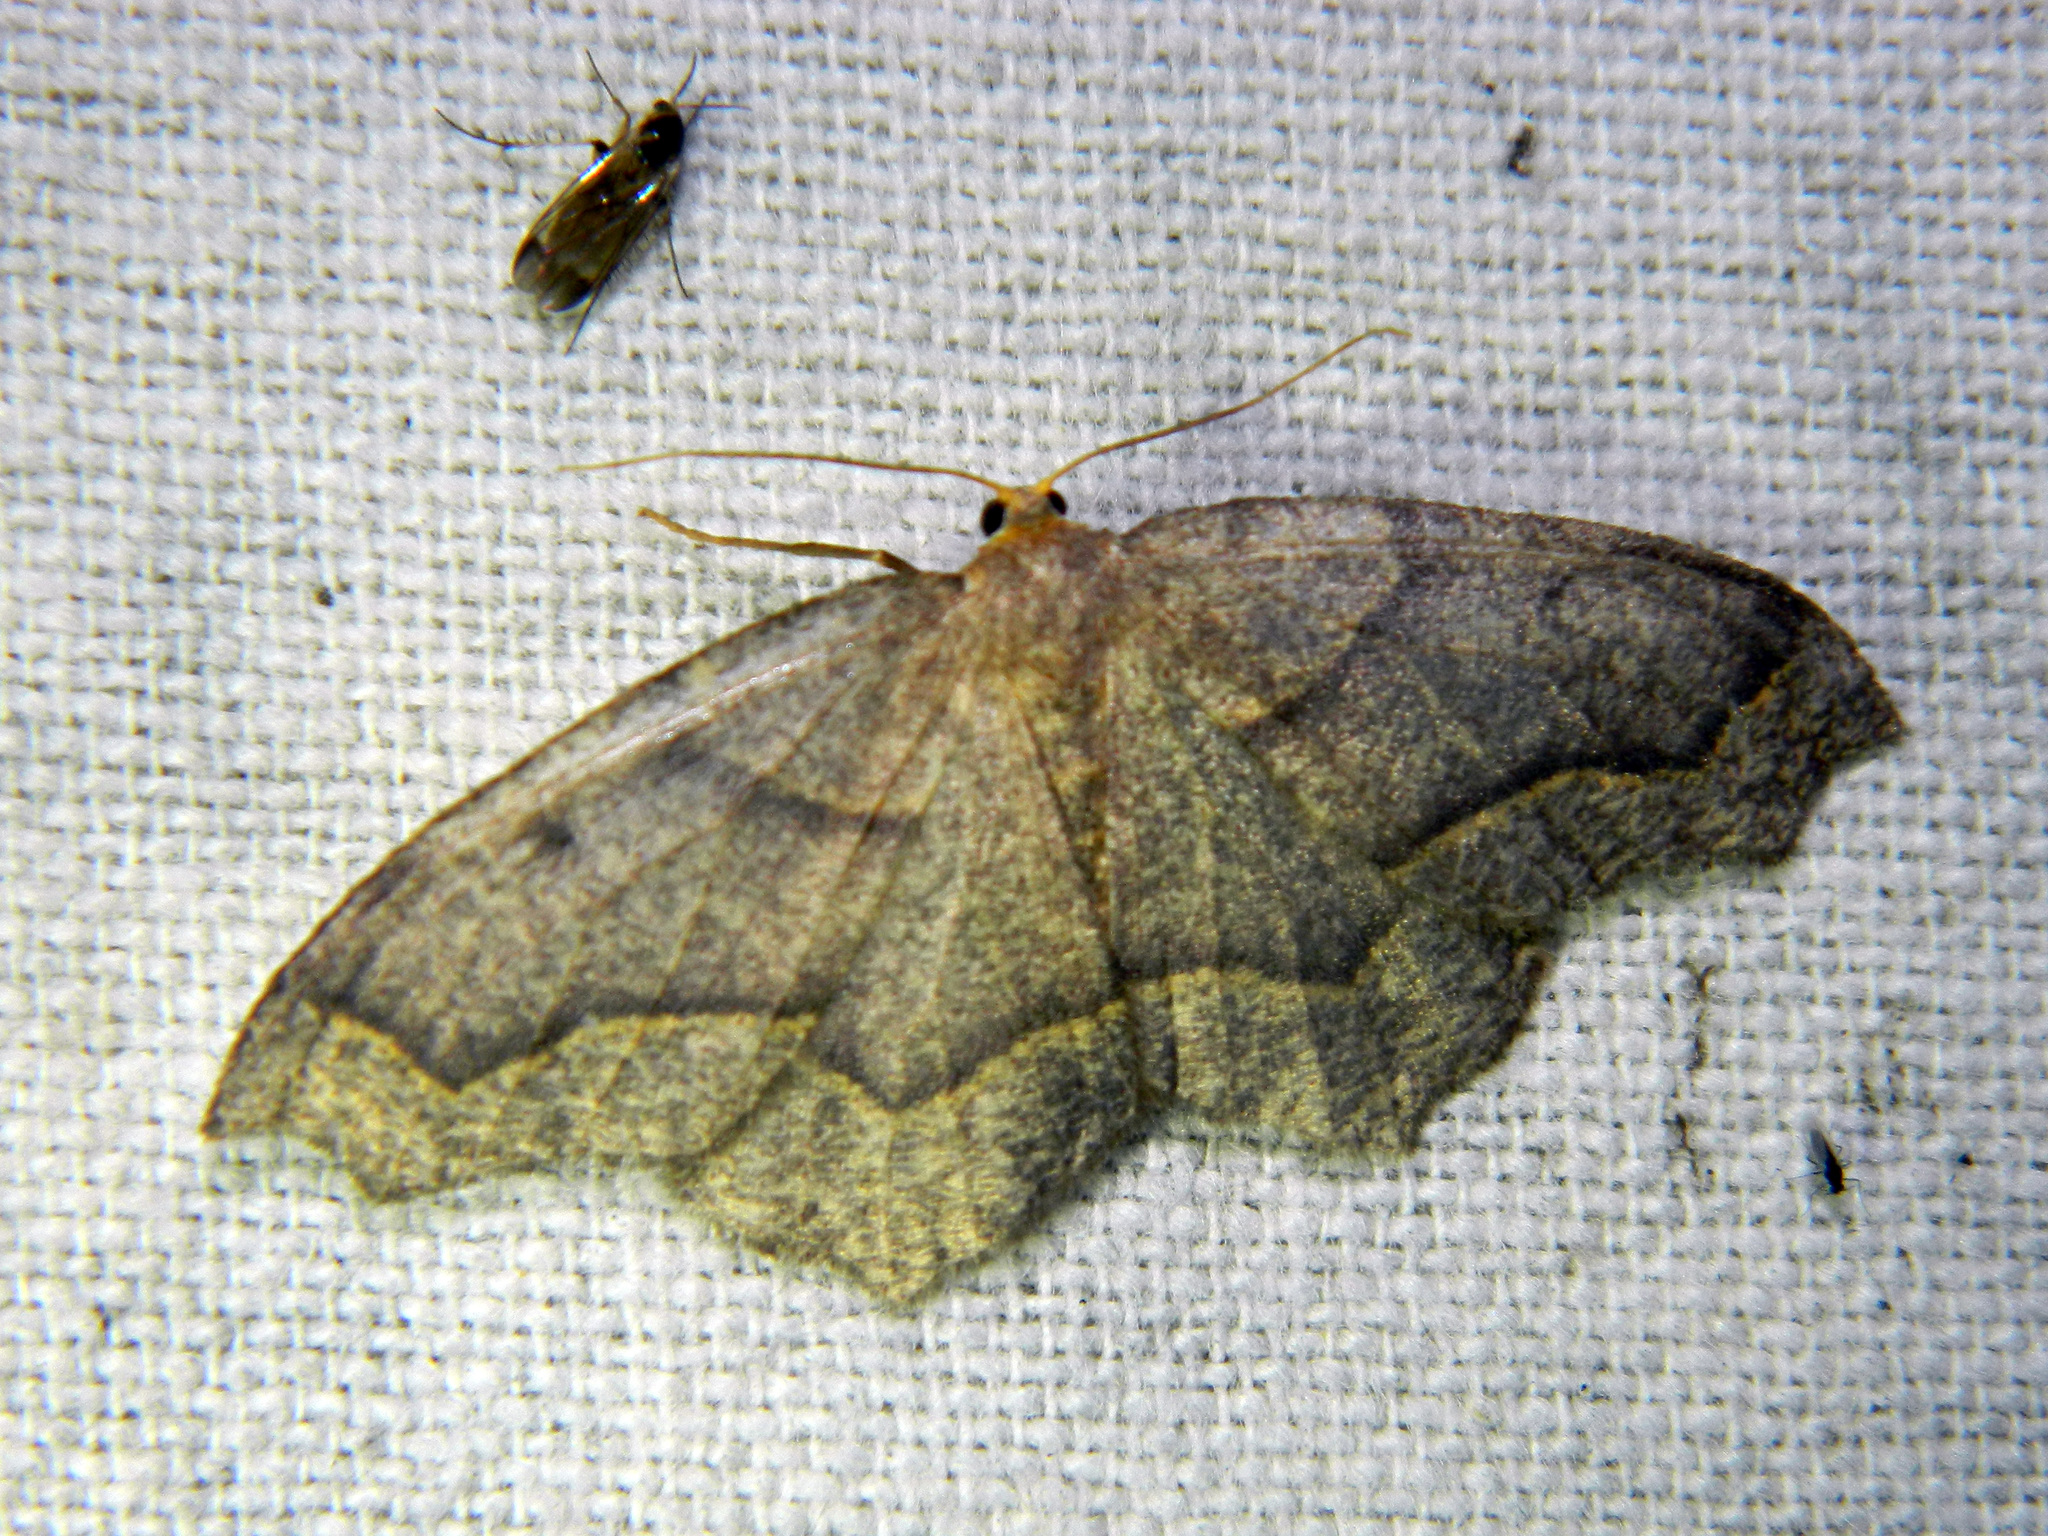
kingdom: Animalia
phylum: Arthropoda
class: Insecta
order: Lepidoptera
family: Geometridae
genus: Lambdina
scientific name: Lambdina fiscellaria
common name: Hemlock looper
